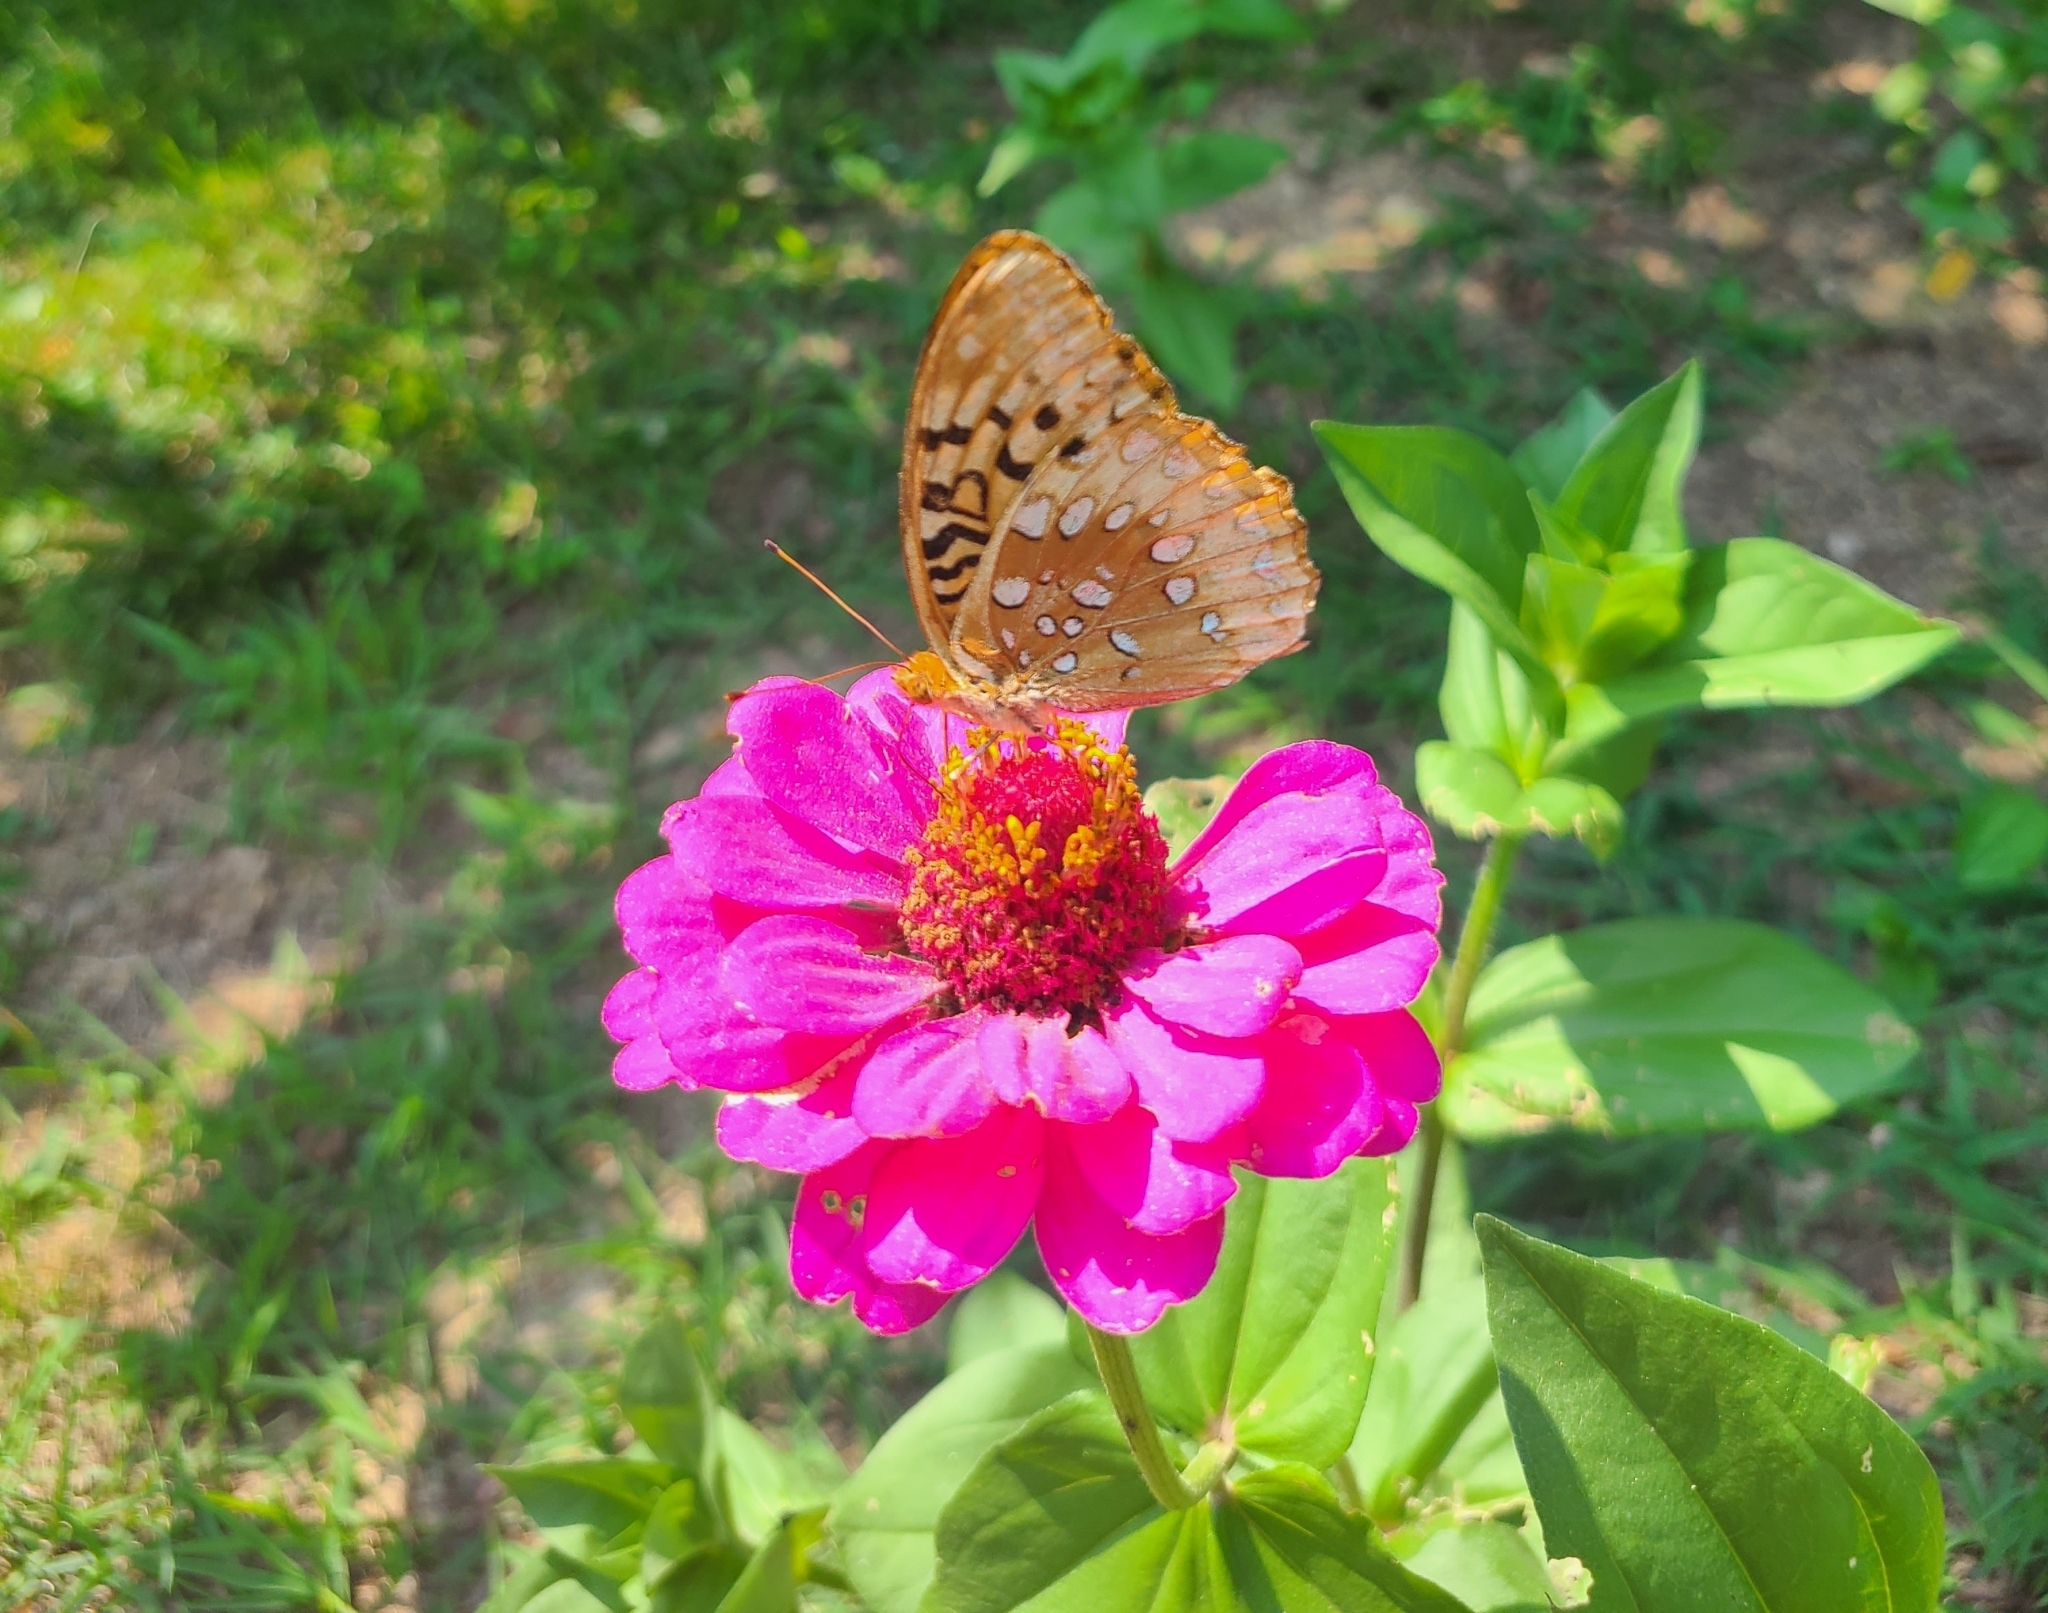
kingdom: Animalia
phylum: Arthropoda
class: Insecta
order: Lepidoptera
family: Nymphalidae
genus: Speyeria
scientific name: Speyeria cybele
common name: Great spangled fritillary
